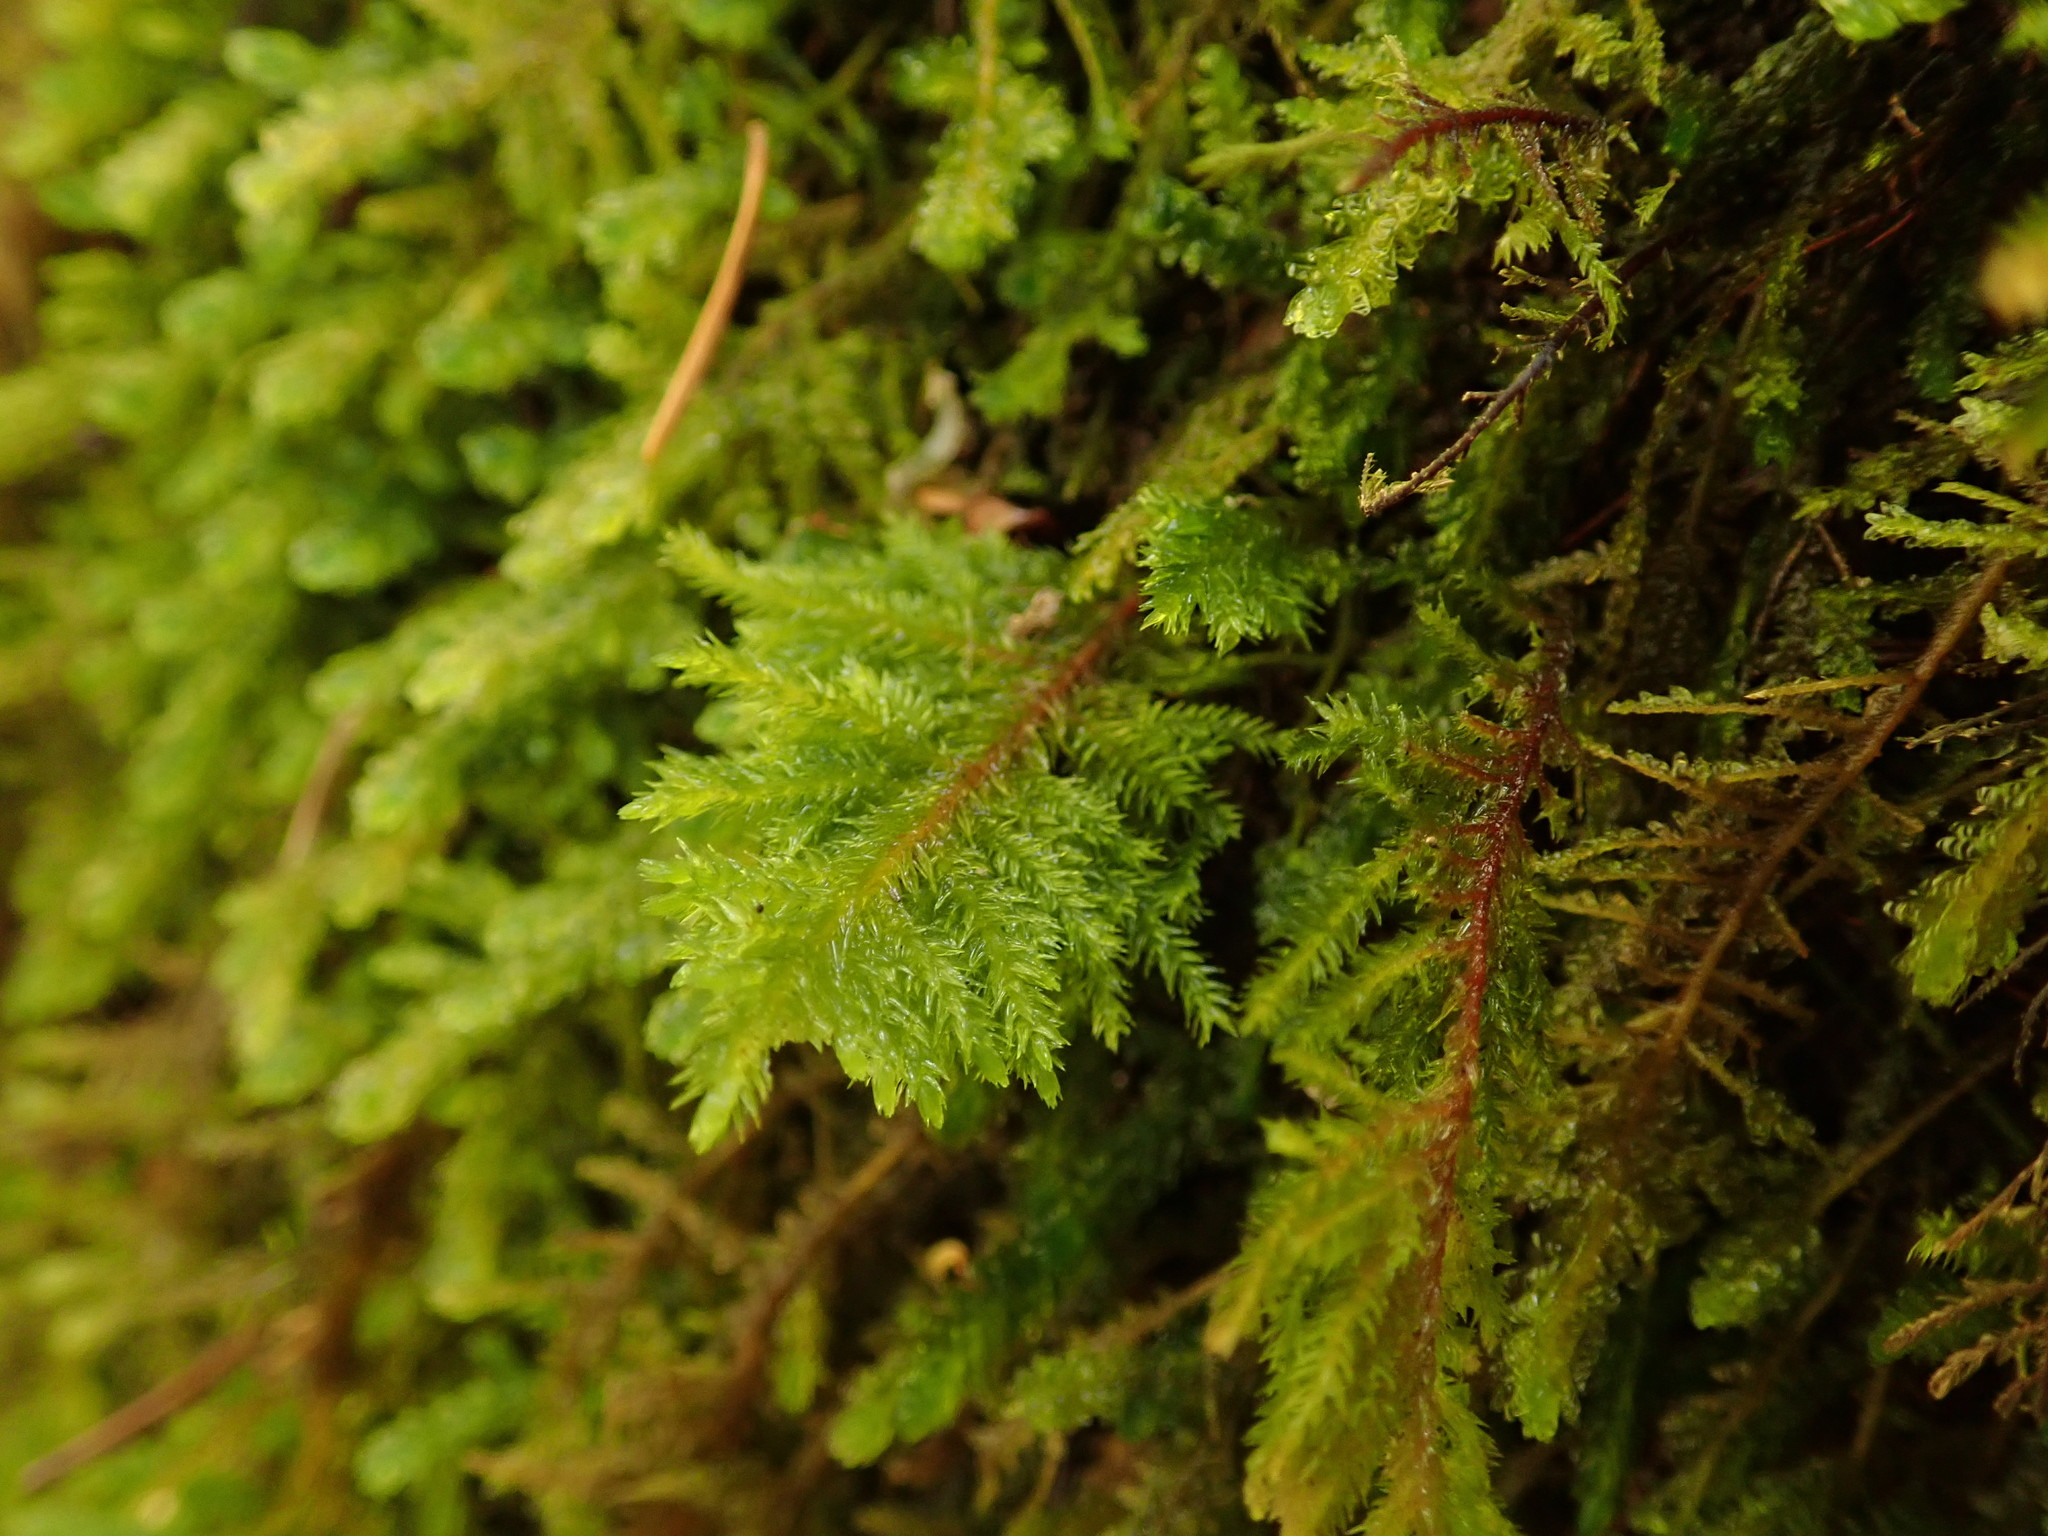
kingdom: Plantae
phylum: Bryophyta
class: Bryopsida
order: Hypnales
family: Cryphaeaceae
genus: Dendroalsia
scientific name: Dendroalsia abietina
